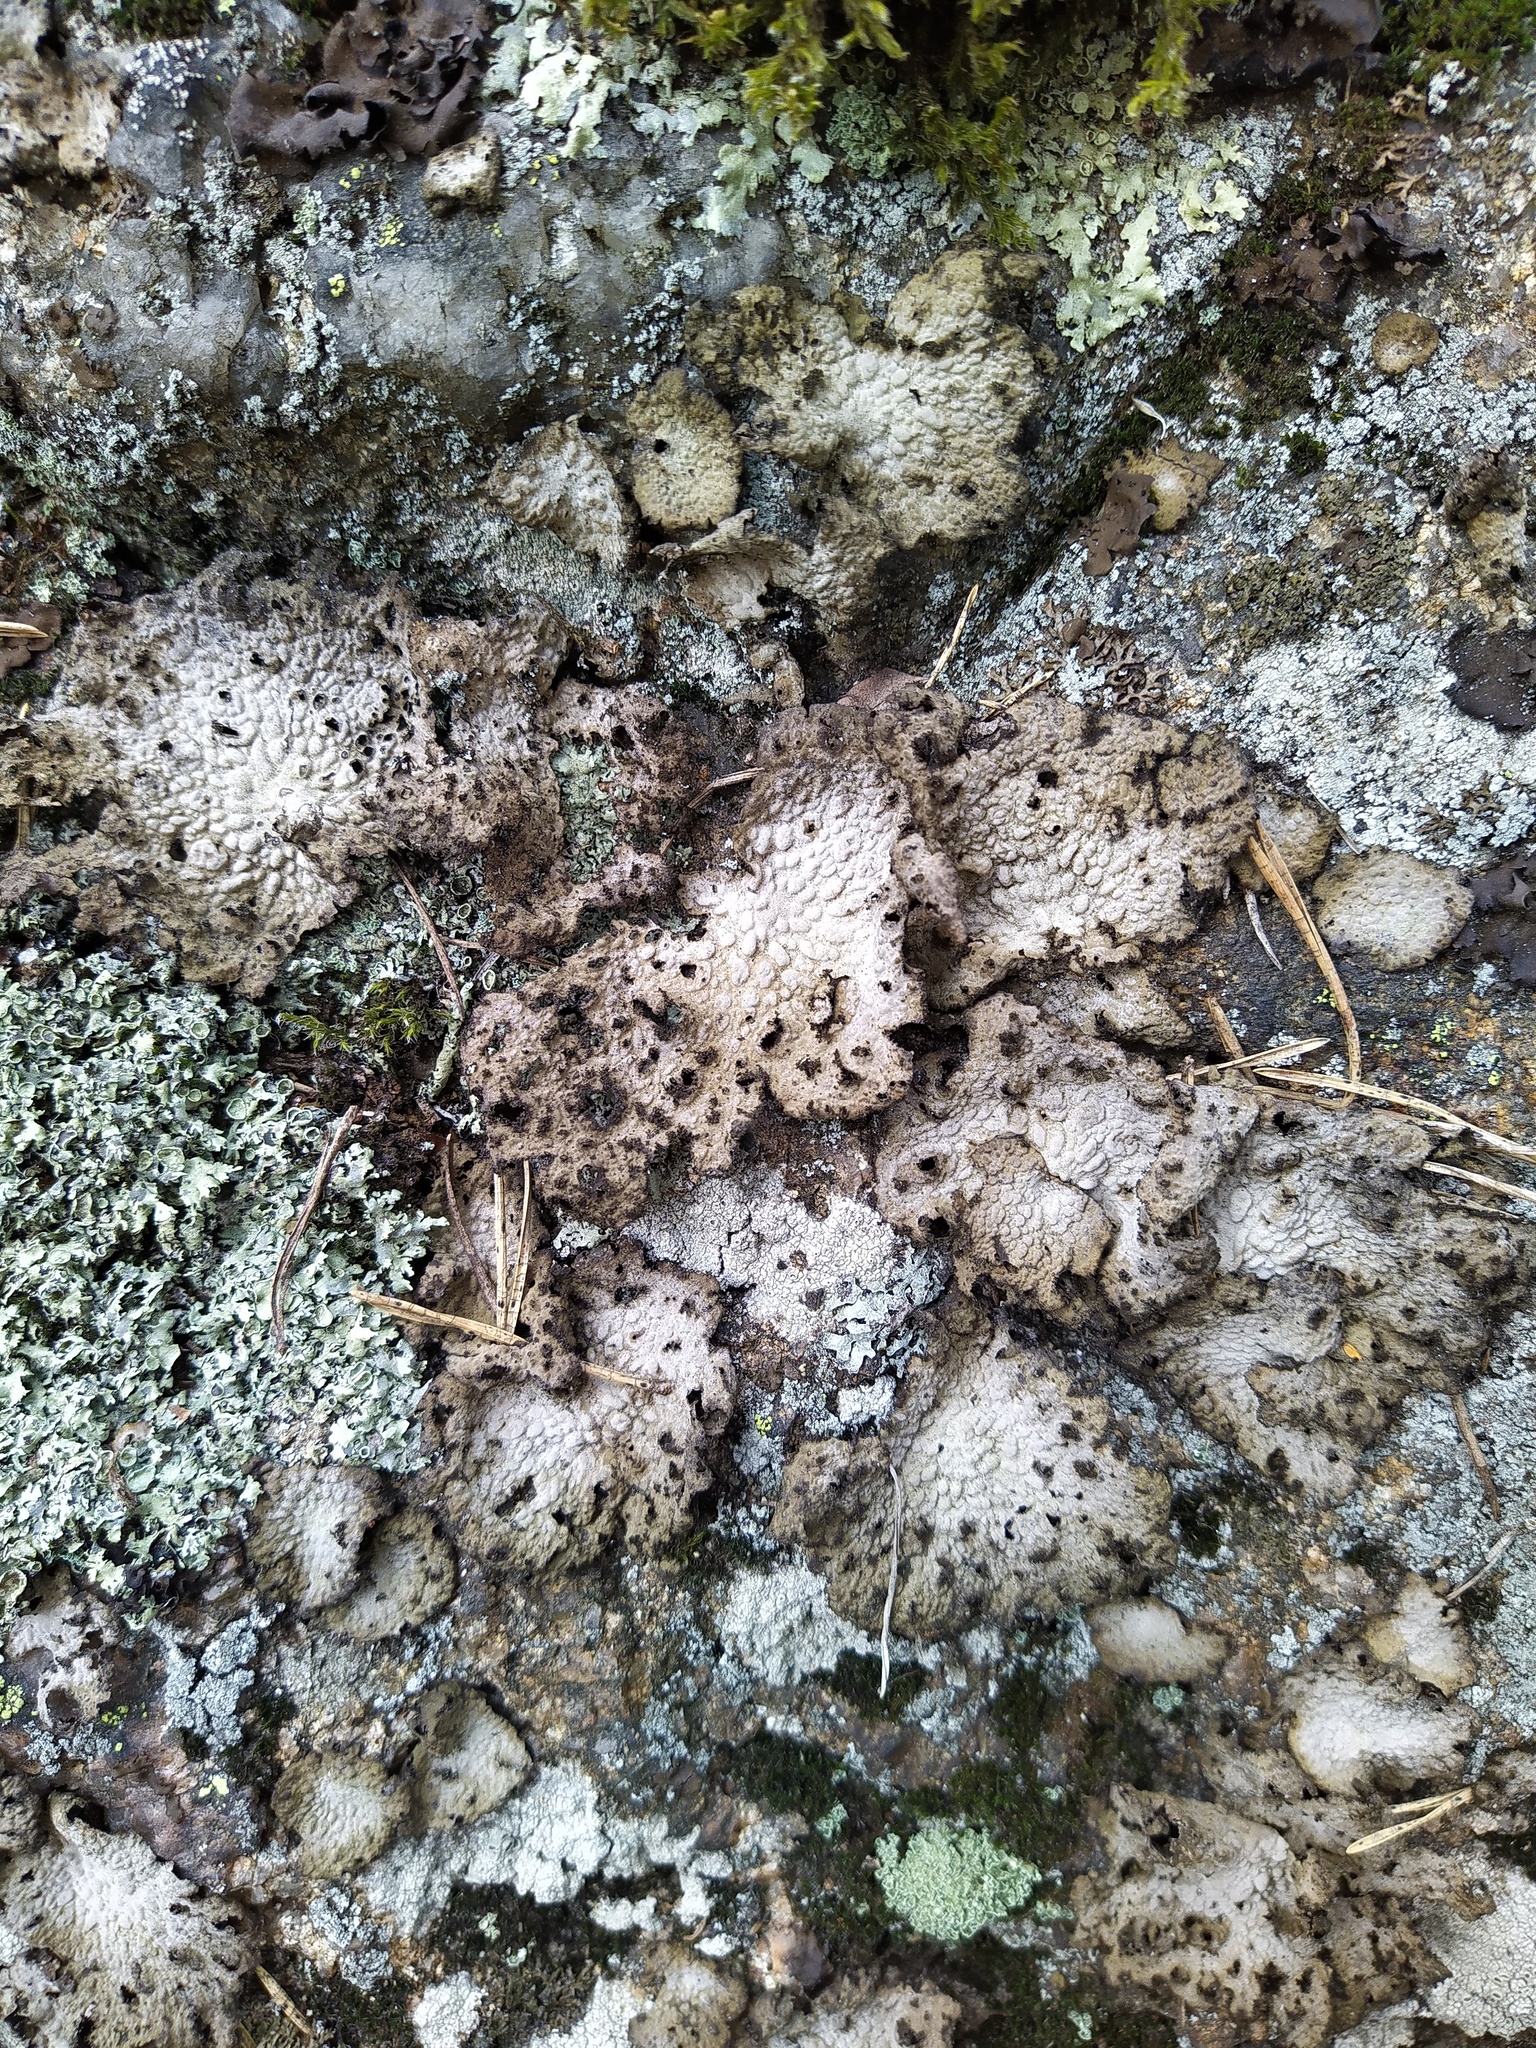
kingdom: Fungi
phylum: Ascomycota
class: Lecanoromycetes
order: Umbilicariales
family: Umbilicariaceae
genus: Lasallia
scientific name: Lasallia pustulata
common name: Blistered toadskin lichen
